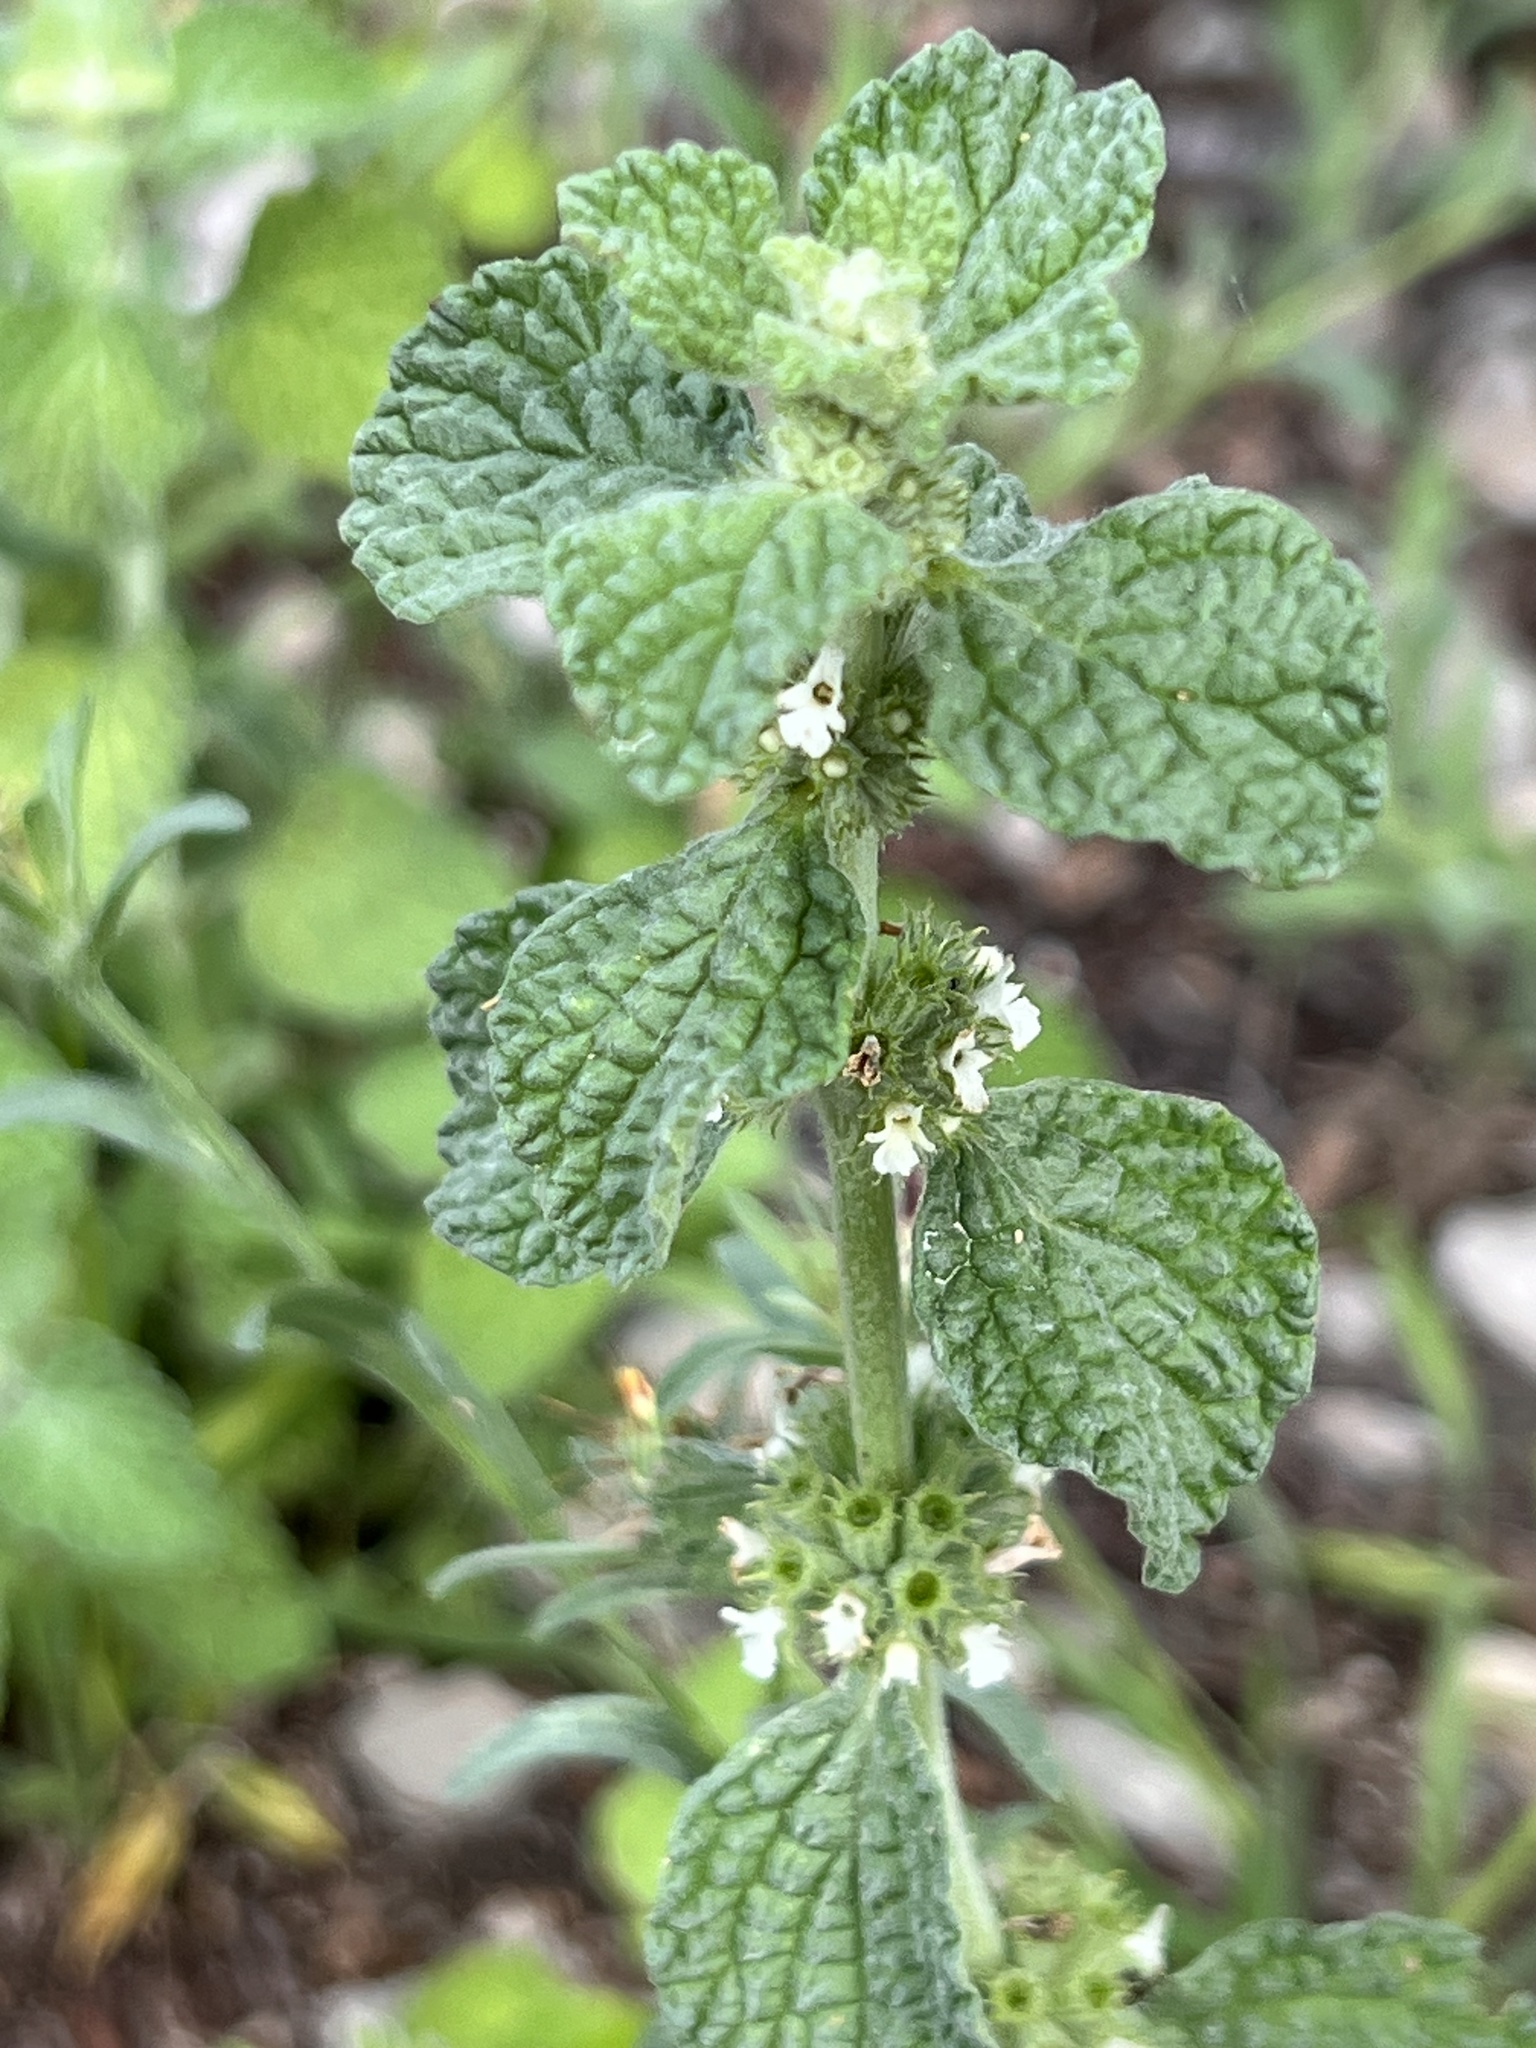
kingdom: Plantae
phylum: Tracheophyta
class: Magnoliopsida
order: Lamiales
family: Lamiaceae
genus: Marrubium
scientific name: Marrubium vulgare
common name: Horehound
